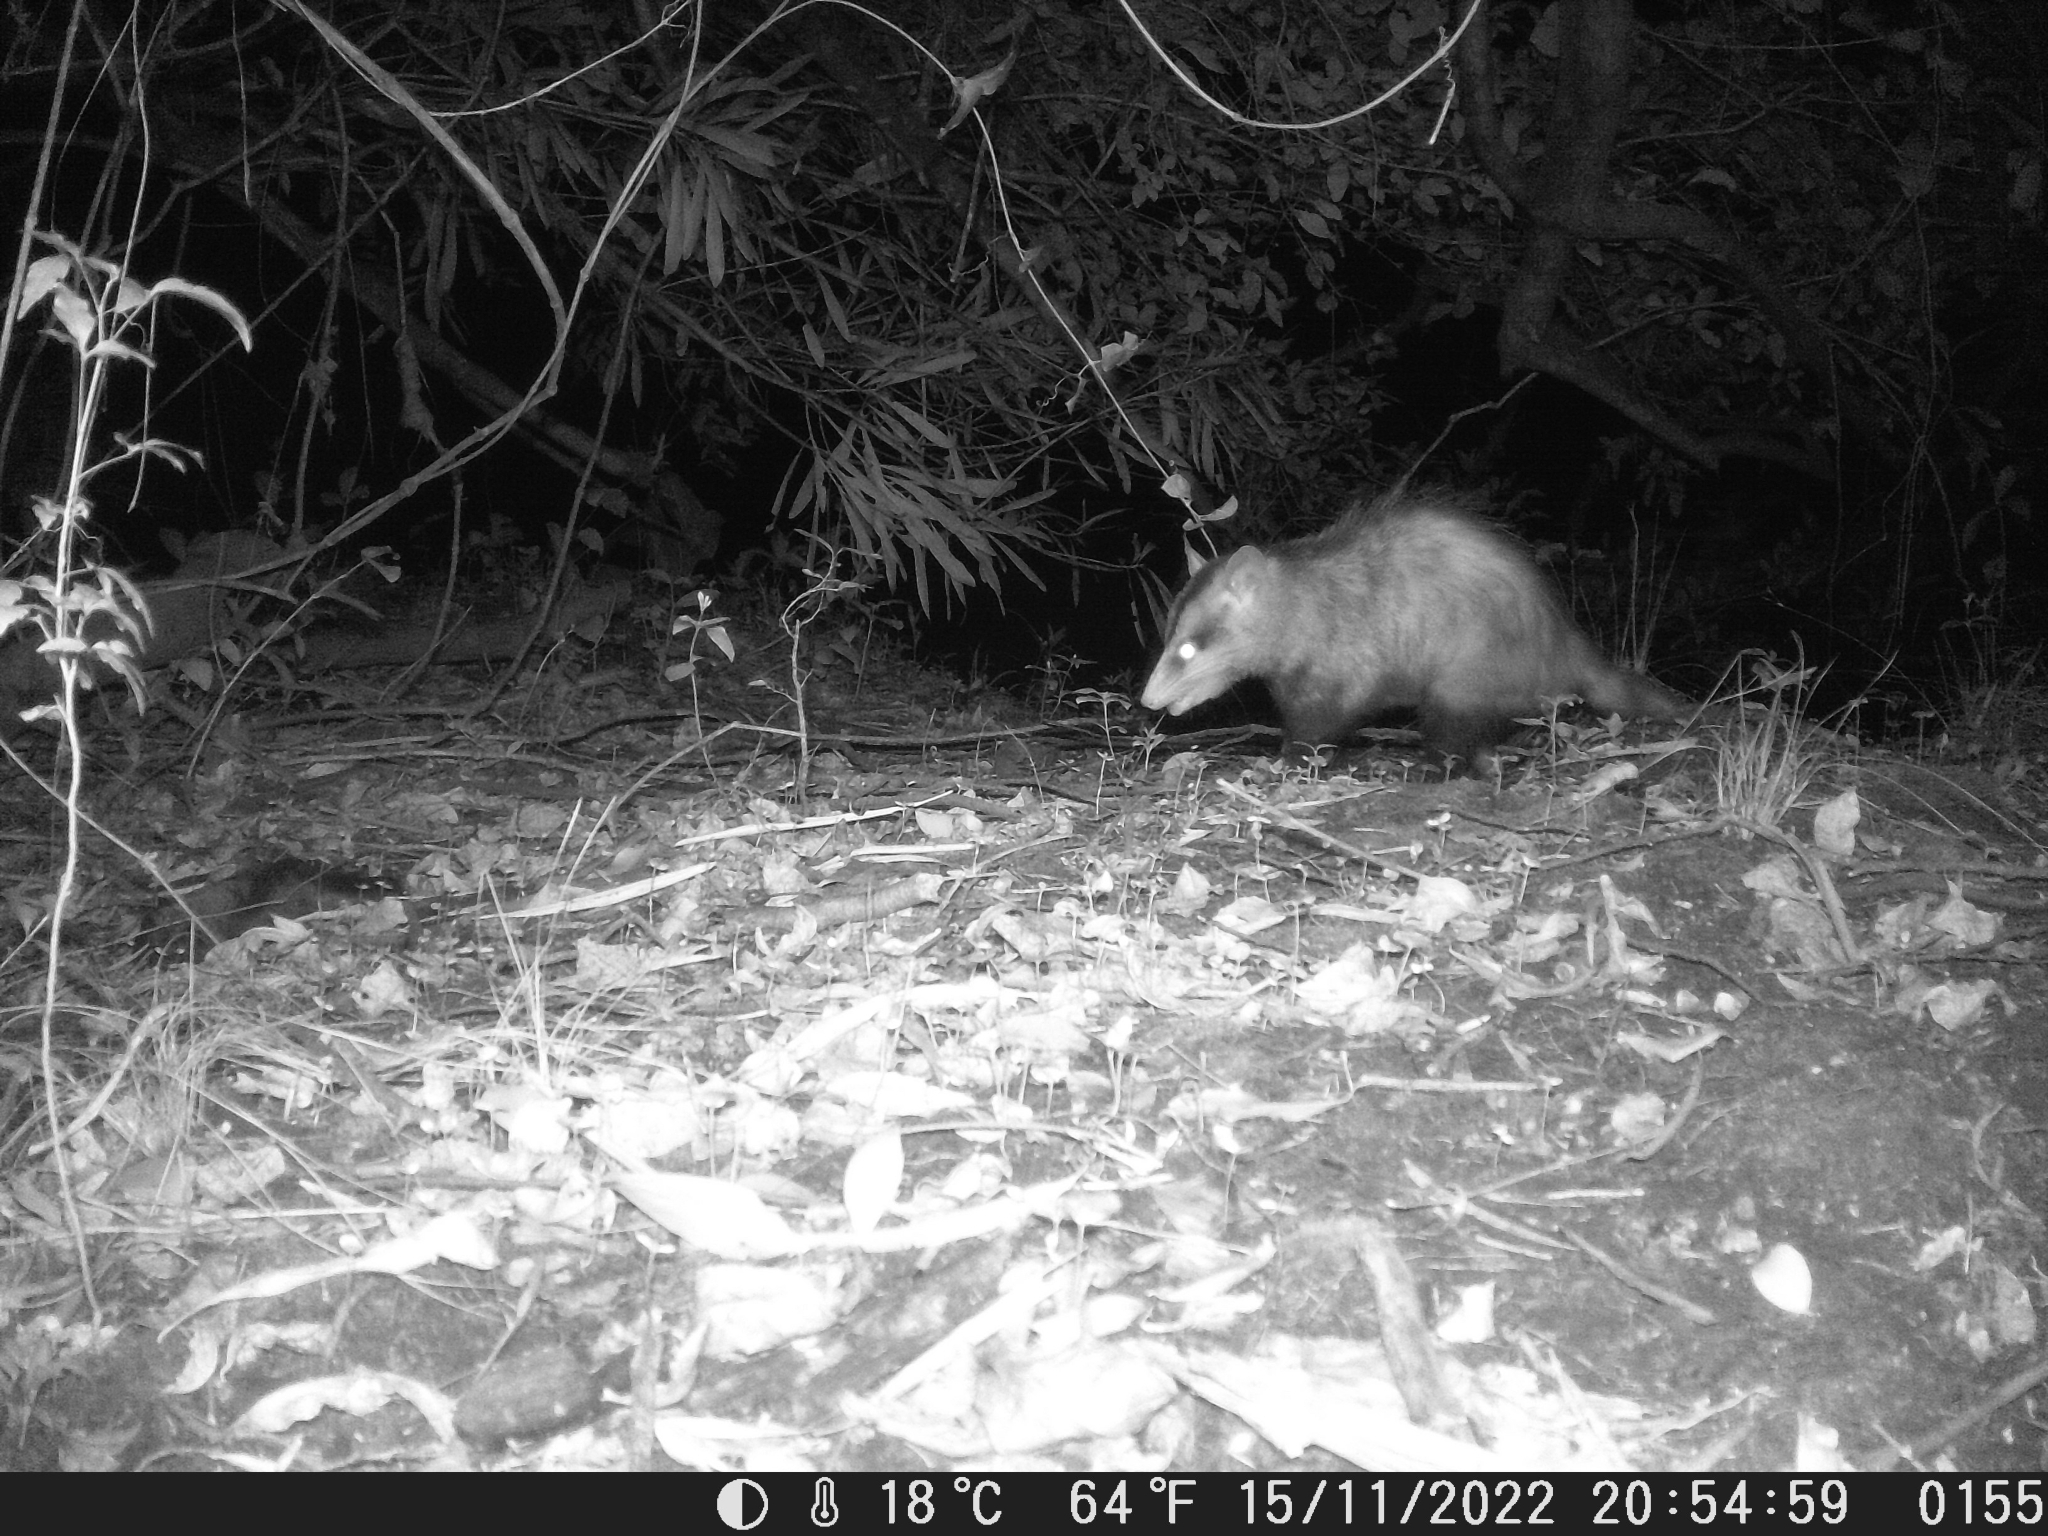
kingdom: Animalia
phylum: Chordata
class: Mammalia
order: Didelphimorphia
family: Didelphidae
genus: Didelphis
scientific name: Didelphis albiventris
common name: White-eared opossum
